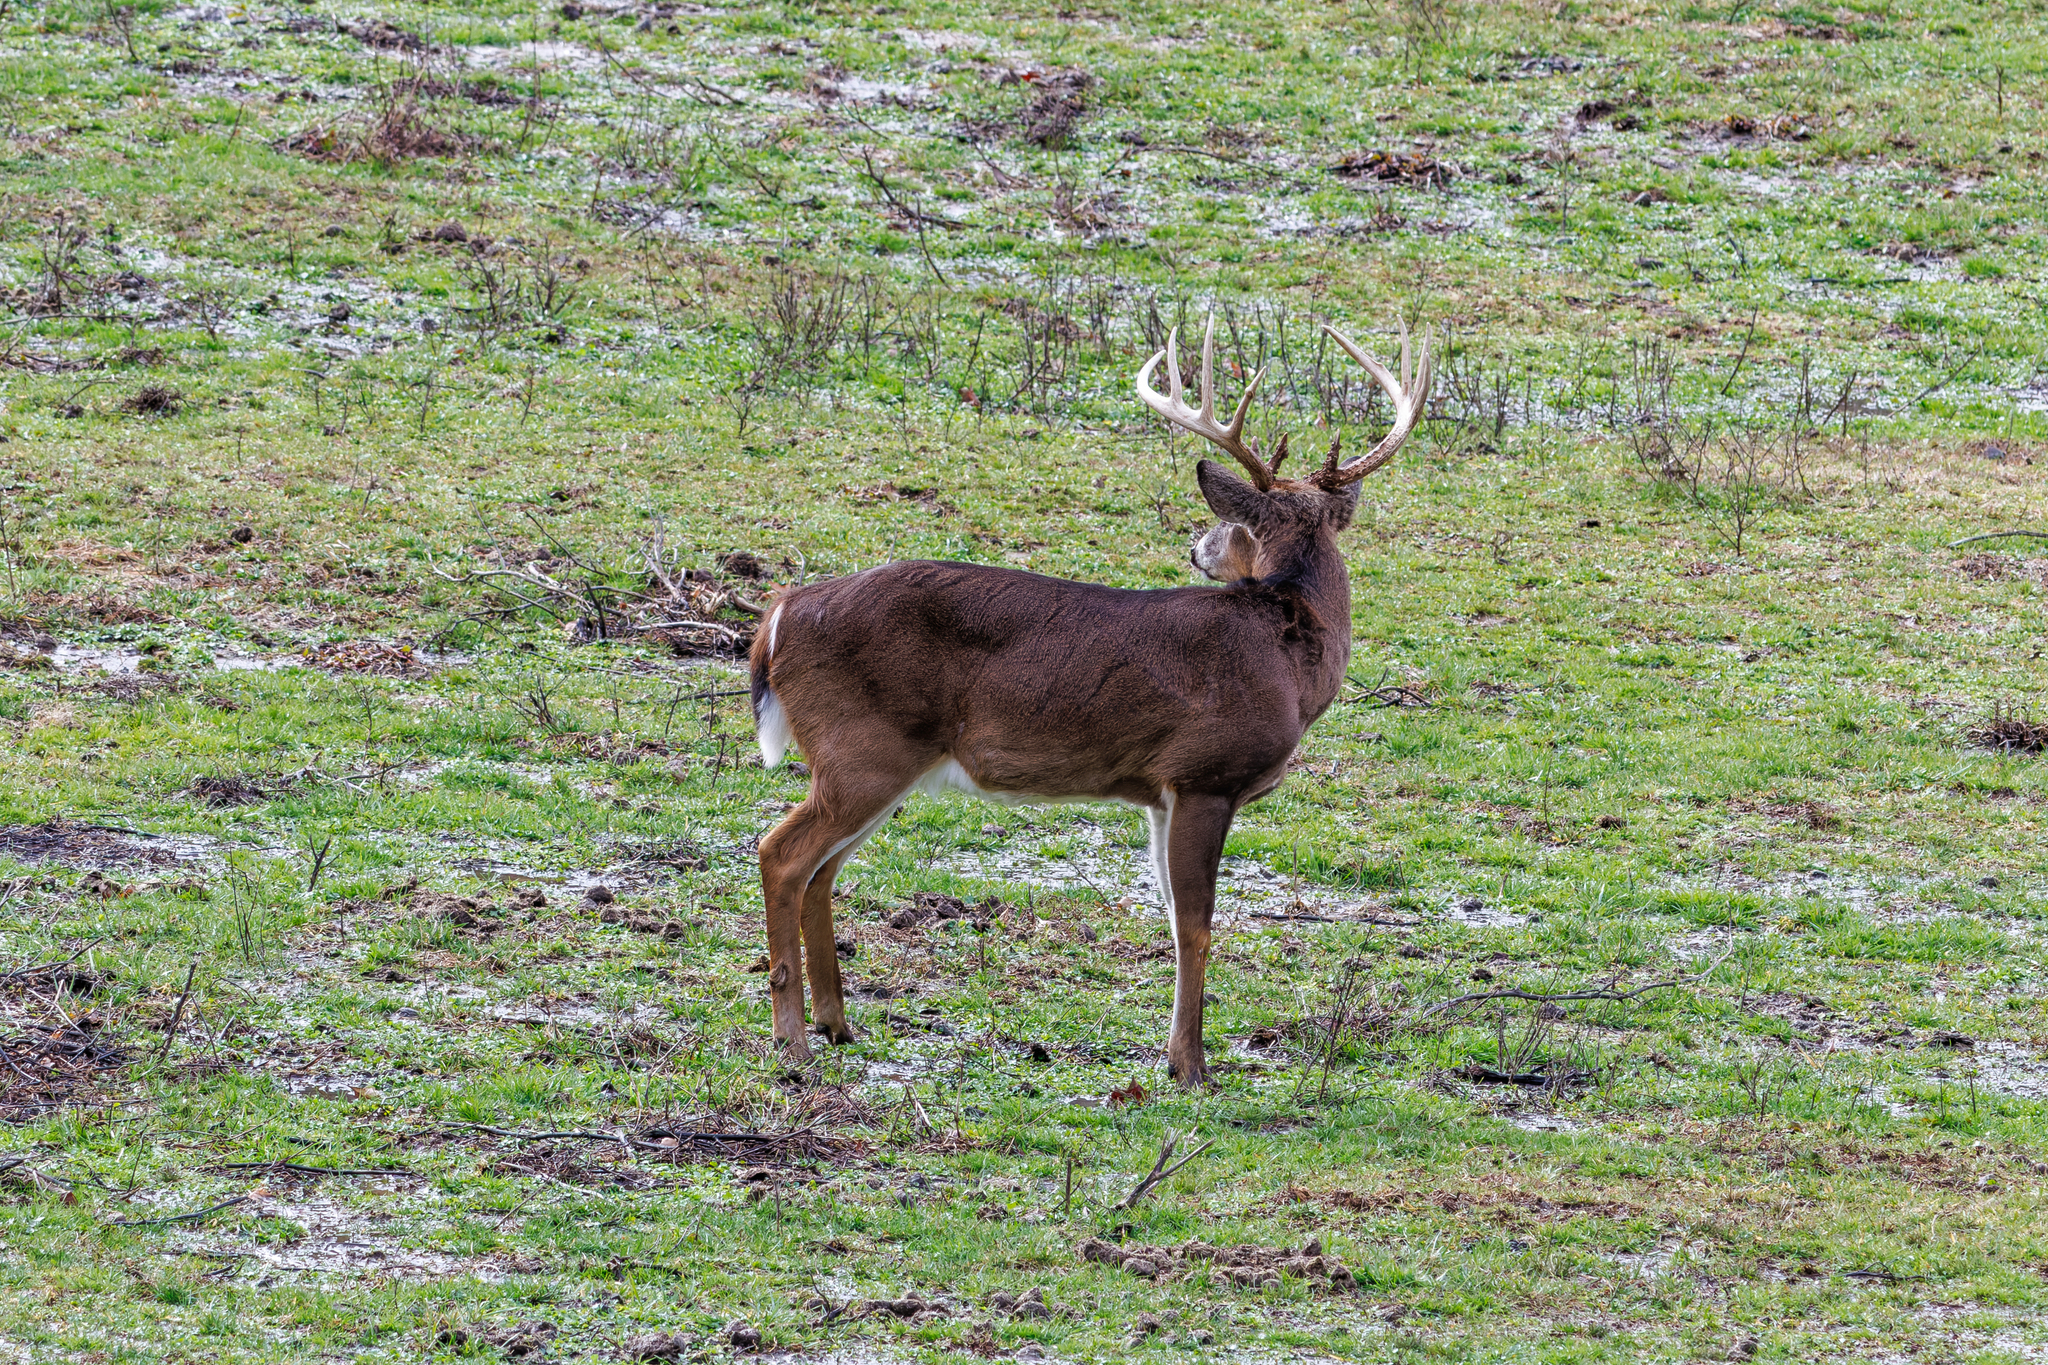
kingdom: Animalia
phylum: Chordata
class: Mammalia
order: Artiodactyla
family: Cervidae
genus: Odocoileus
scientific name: Odocoileus virginianus
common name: White-tailed deer
